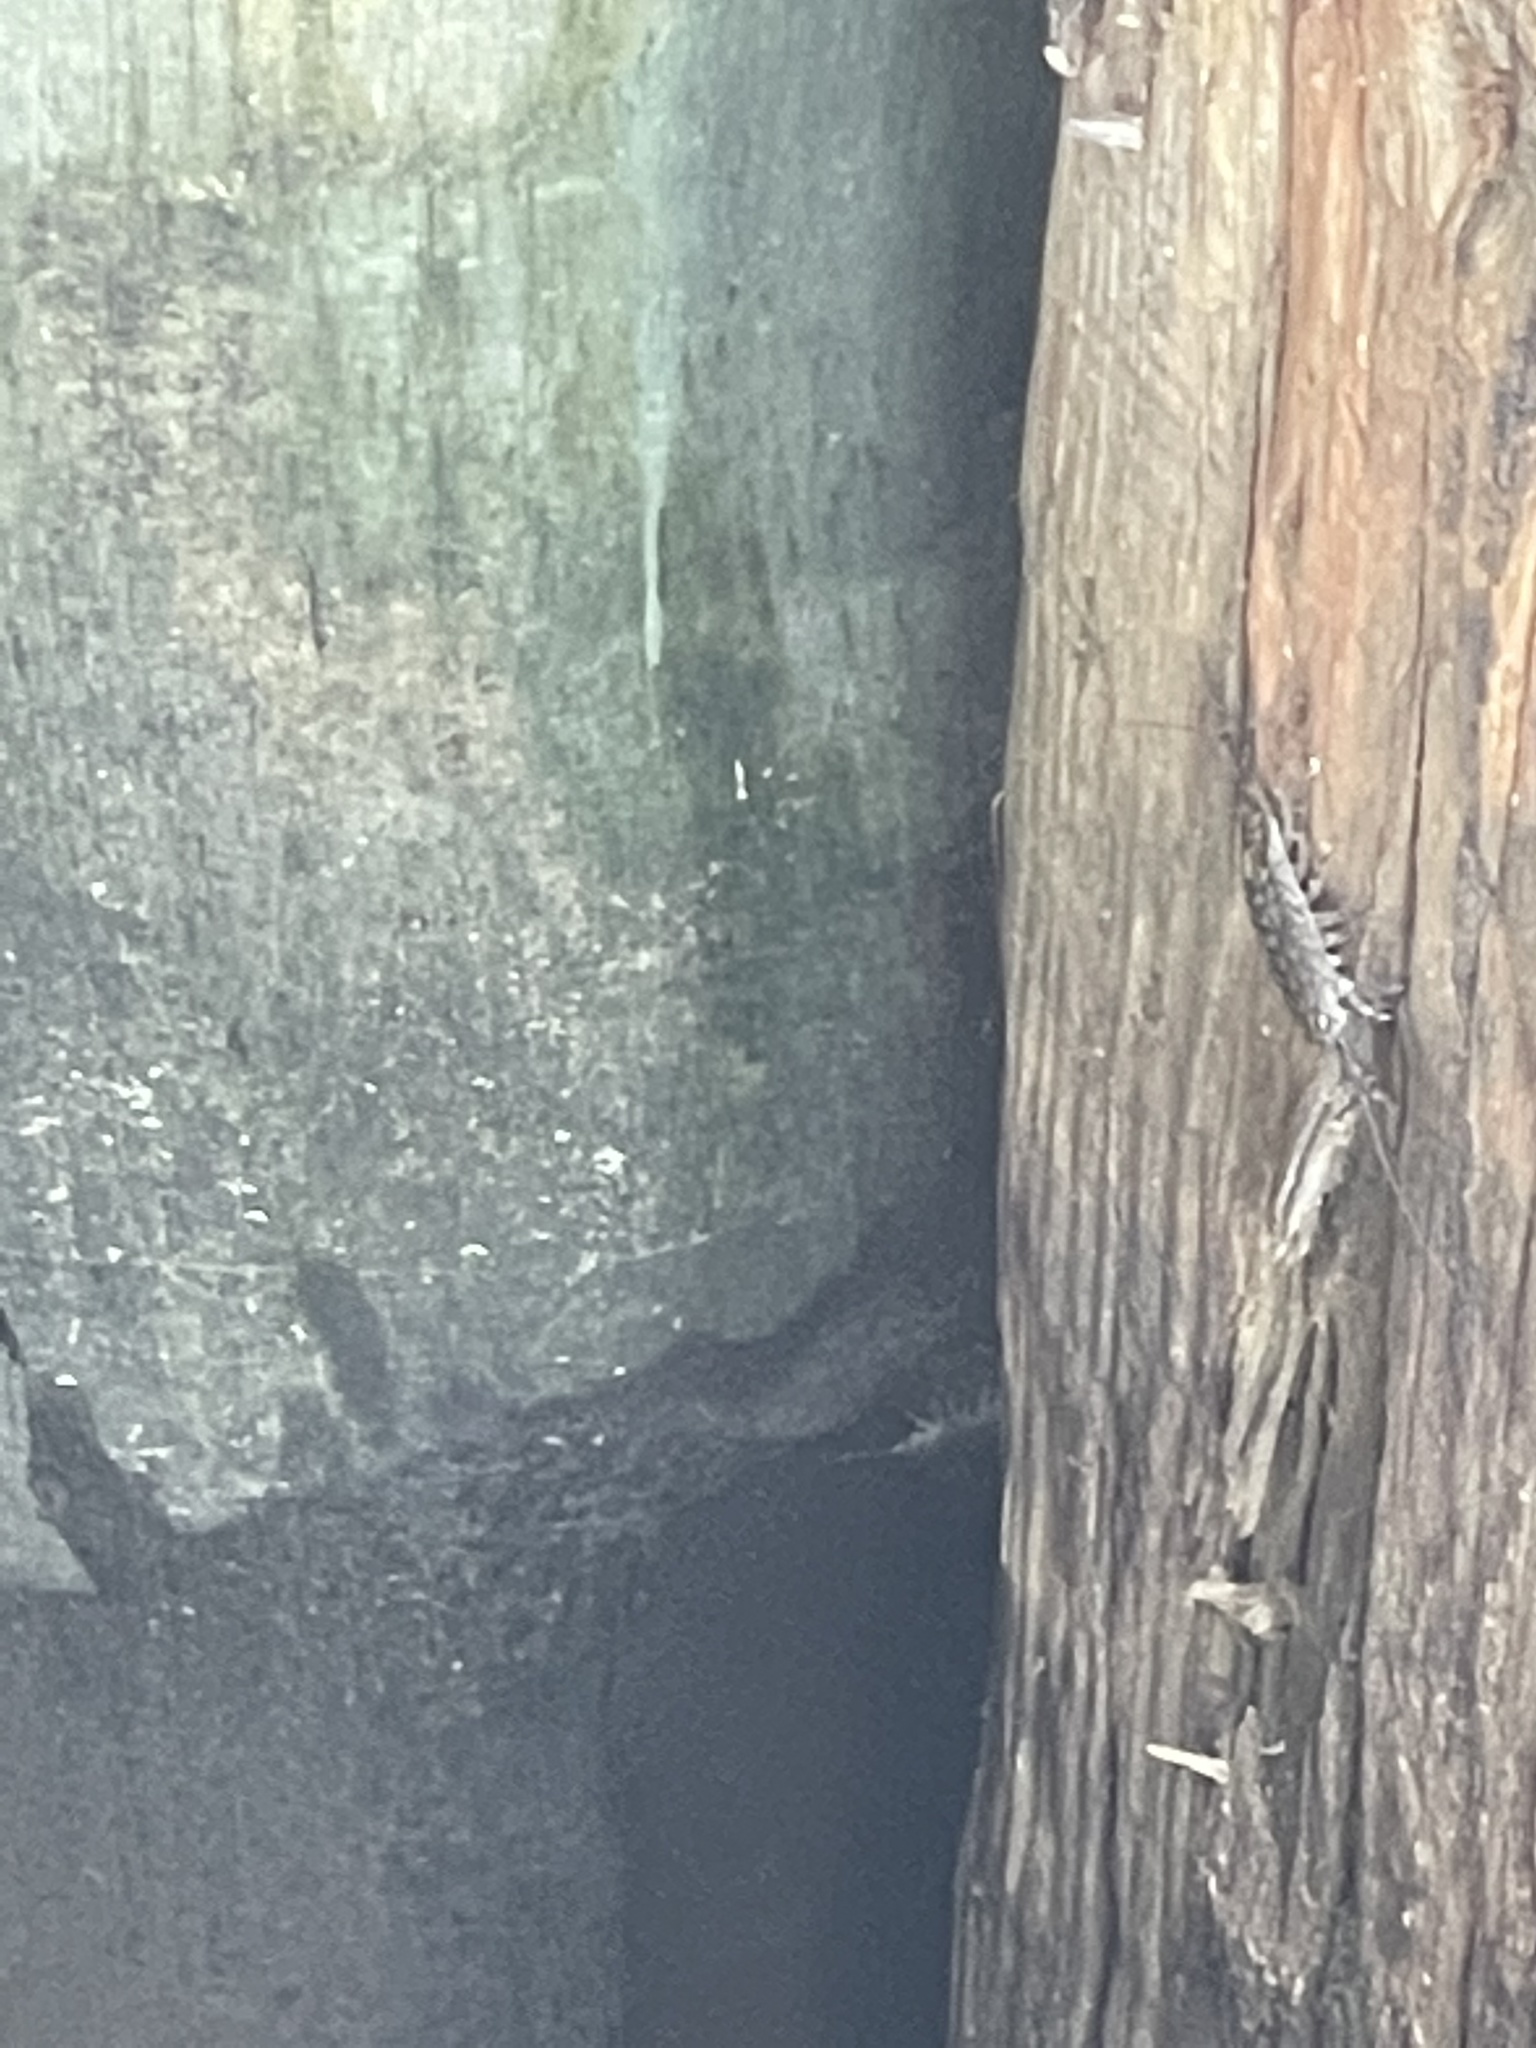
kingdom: Animalia
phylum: Arthropoda
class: Malacostraca
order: Isopoda
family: Ligiidae
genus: Ligia
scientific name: Ligia exotica
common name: Wharf roach
